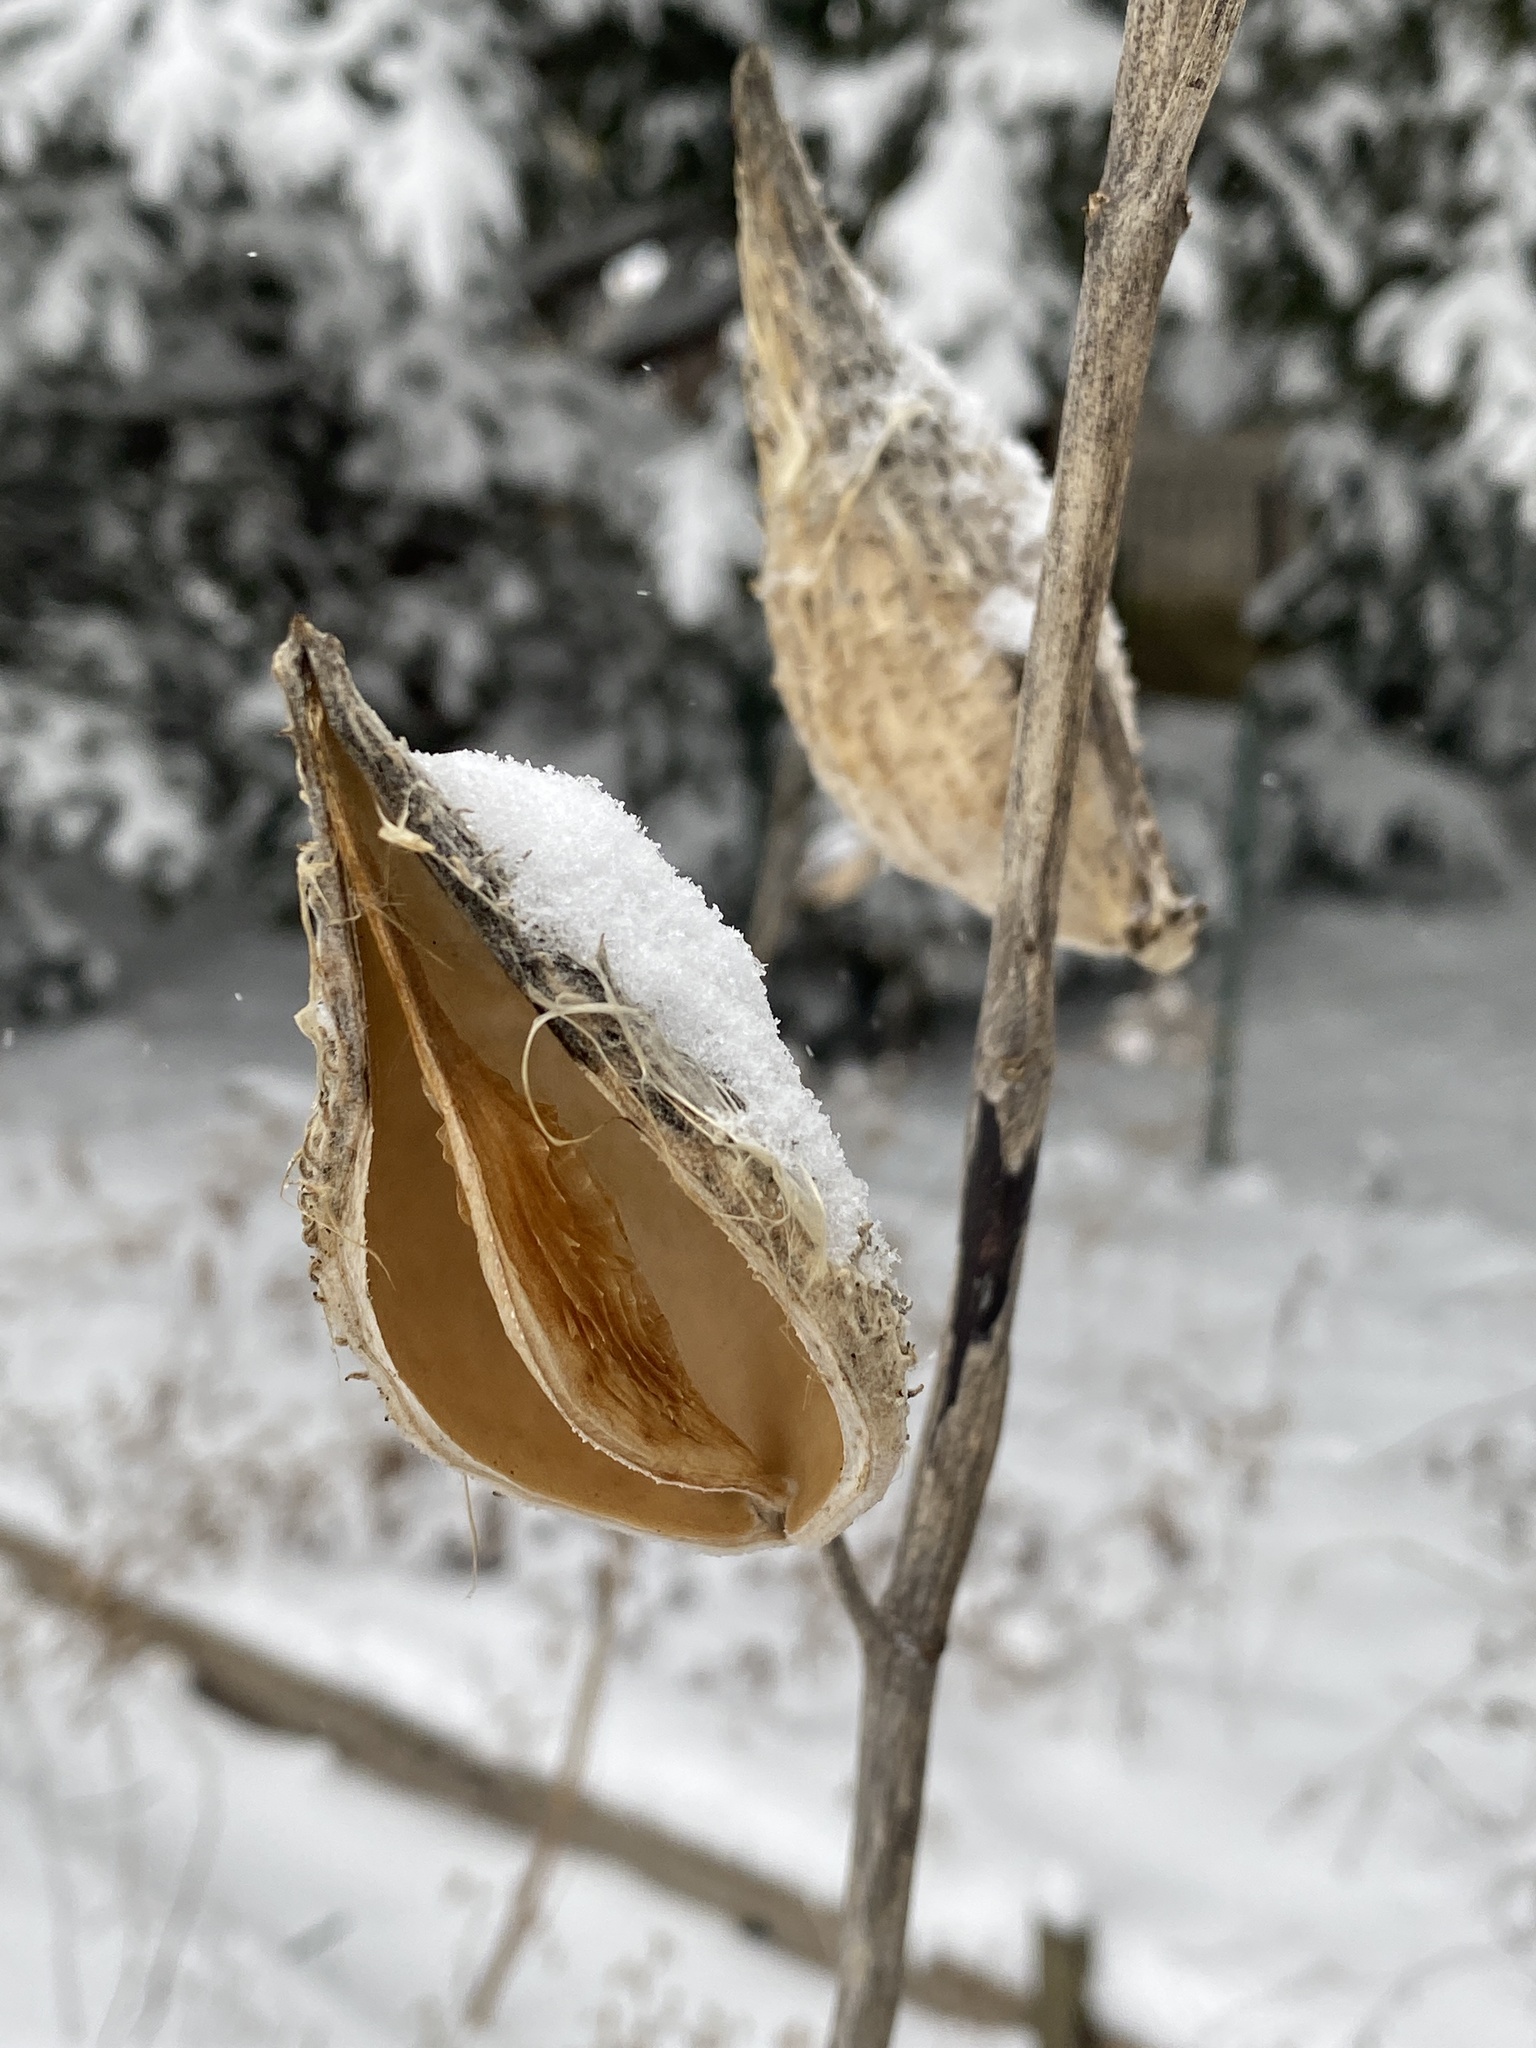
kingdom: Plantae
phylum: Tracheophyta
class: Magnoliopsida
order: Gentianales
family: Apocynaceae
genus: Asclepias
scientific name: Asclepias syriaca
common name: Common milkweed
